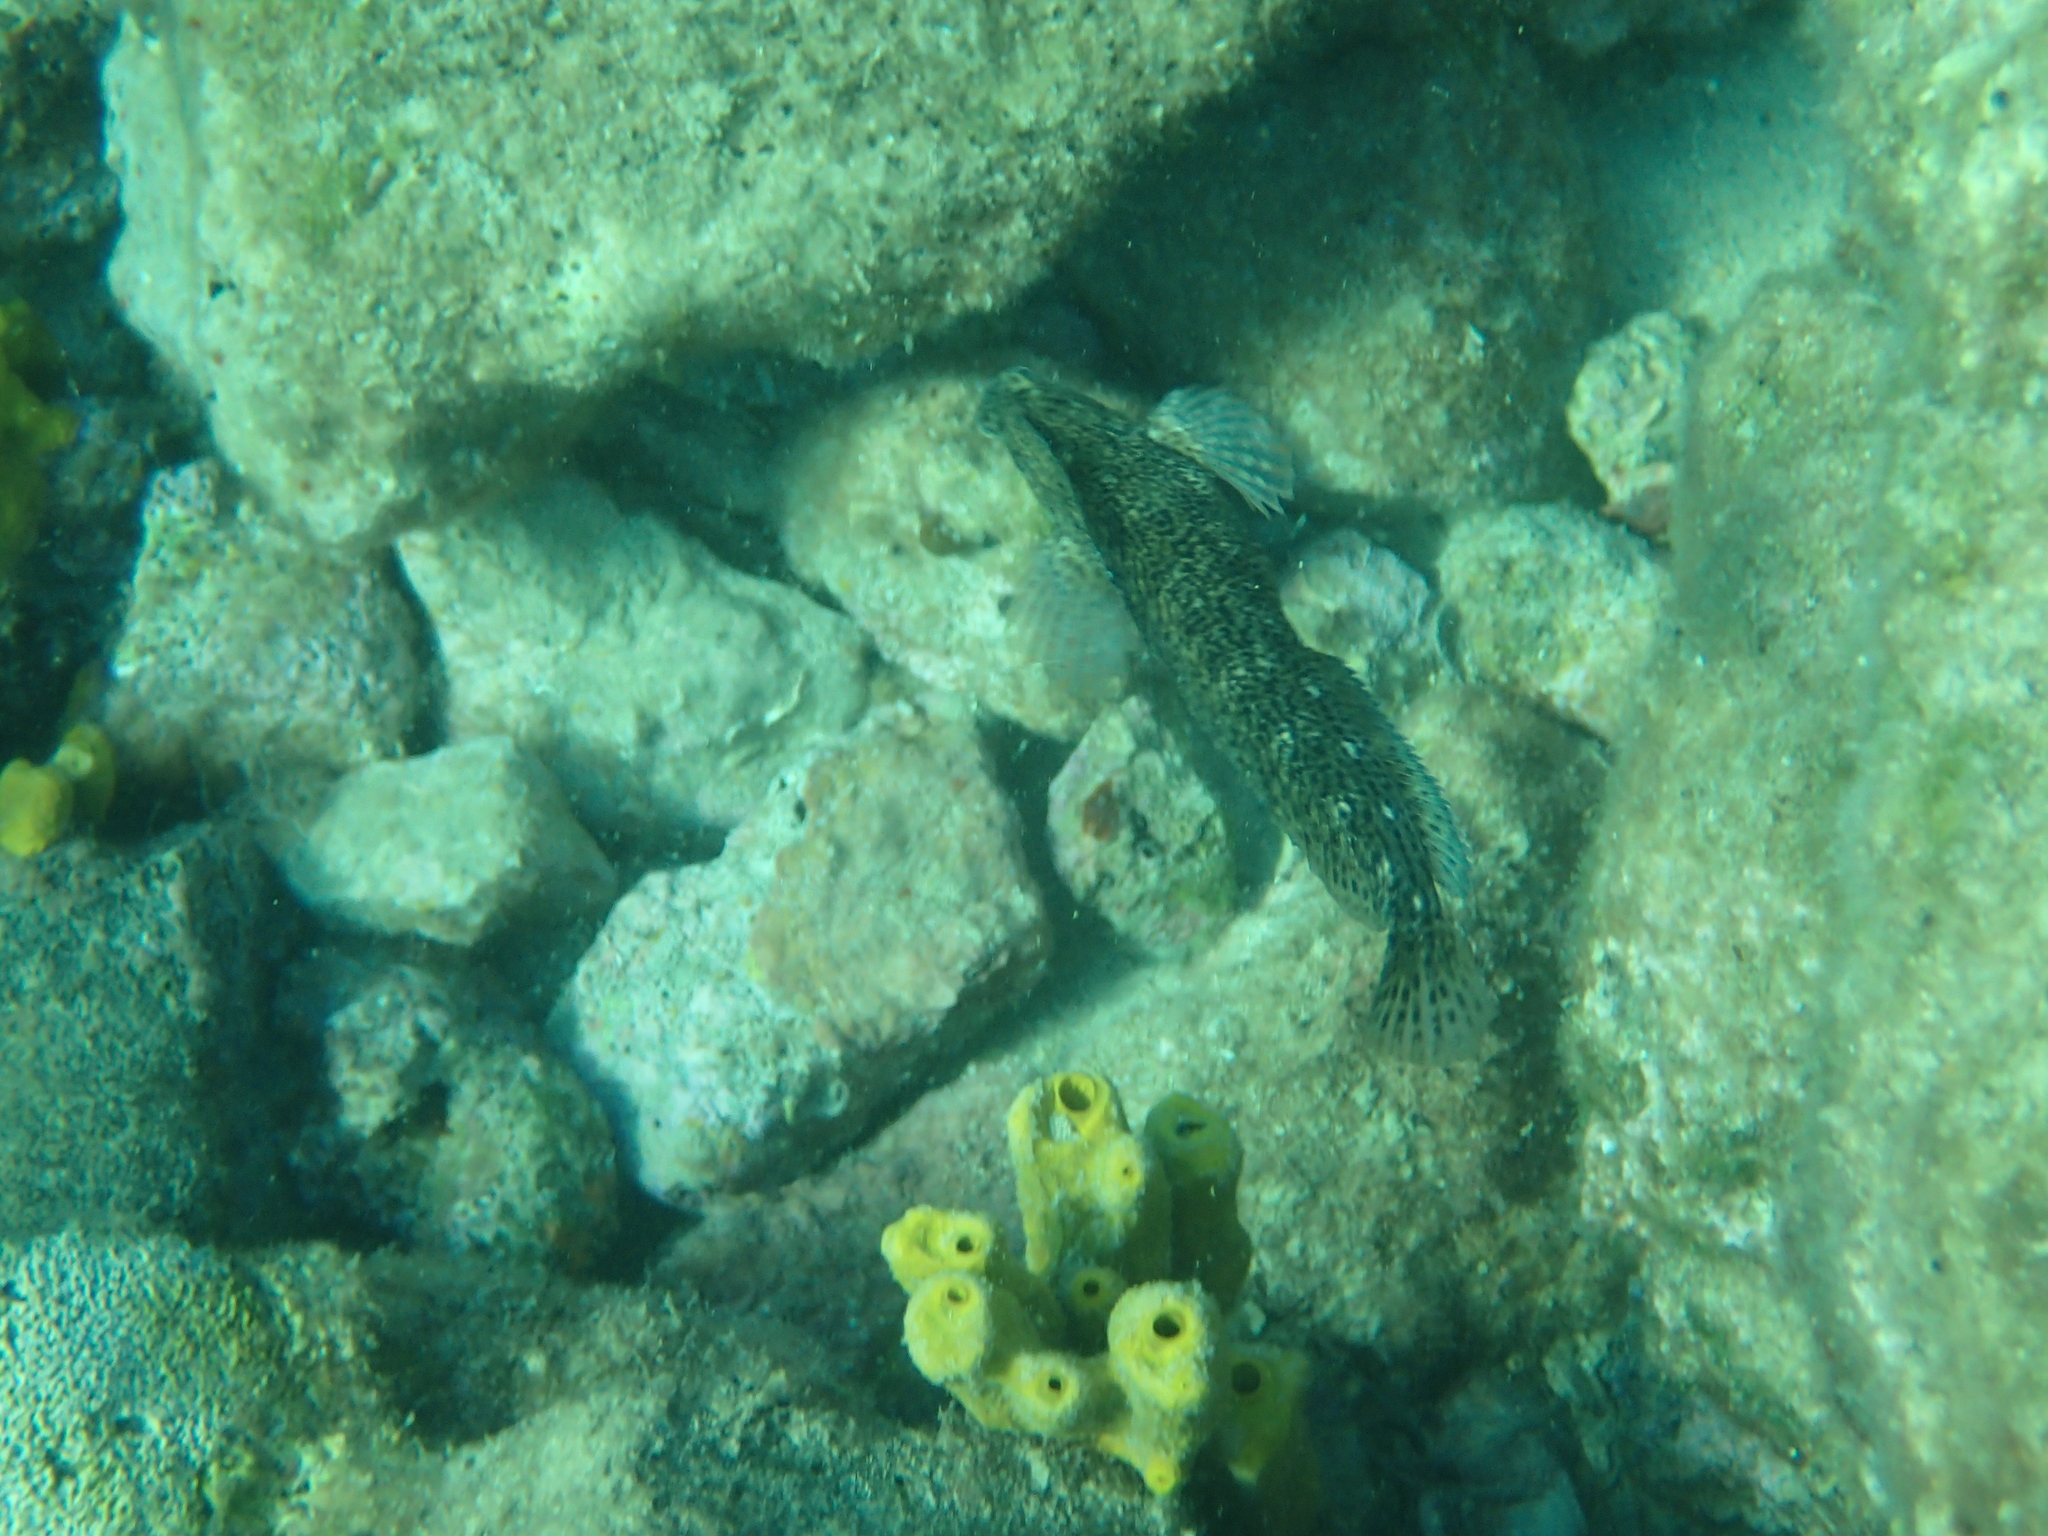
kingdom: Animalia
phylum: Chordata
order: Perciformes
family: Blenniidae
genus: Parablennius
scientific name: Parablennius sanguinolentus
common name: Black sea blenny
